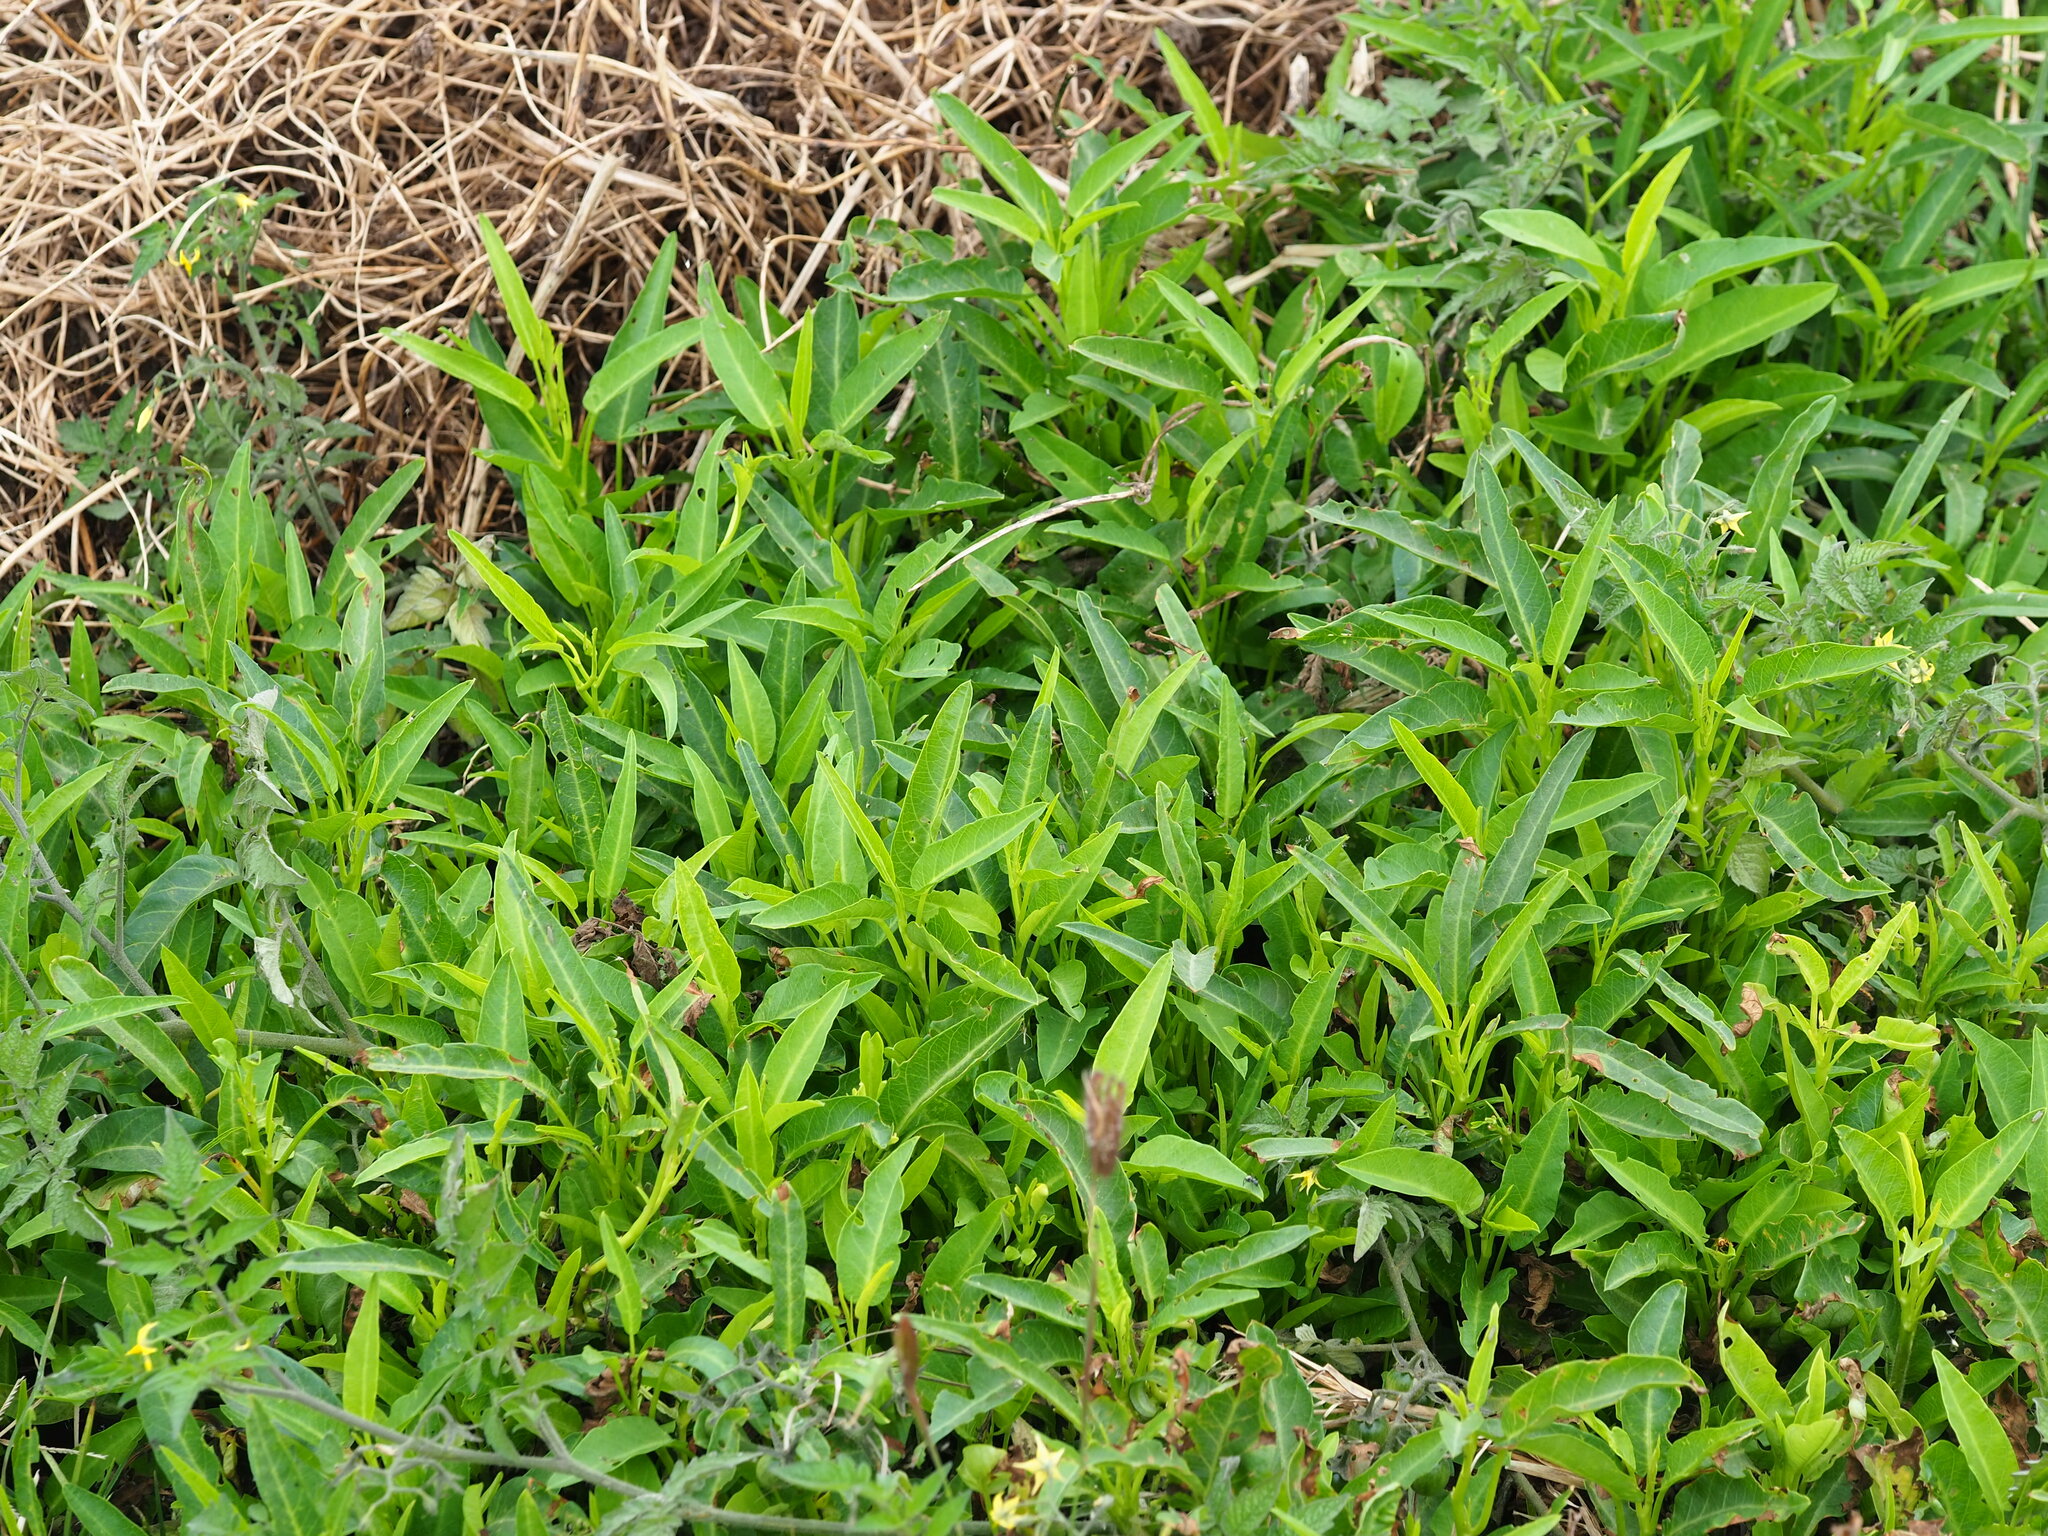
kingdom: Plantae
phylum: Tracheophyta
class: Magnoliopsida
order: Solanales
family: Convolvulaceae
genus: Ipomoea
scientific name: Ipomoea aquatica
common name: Swamp morning-glory
